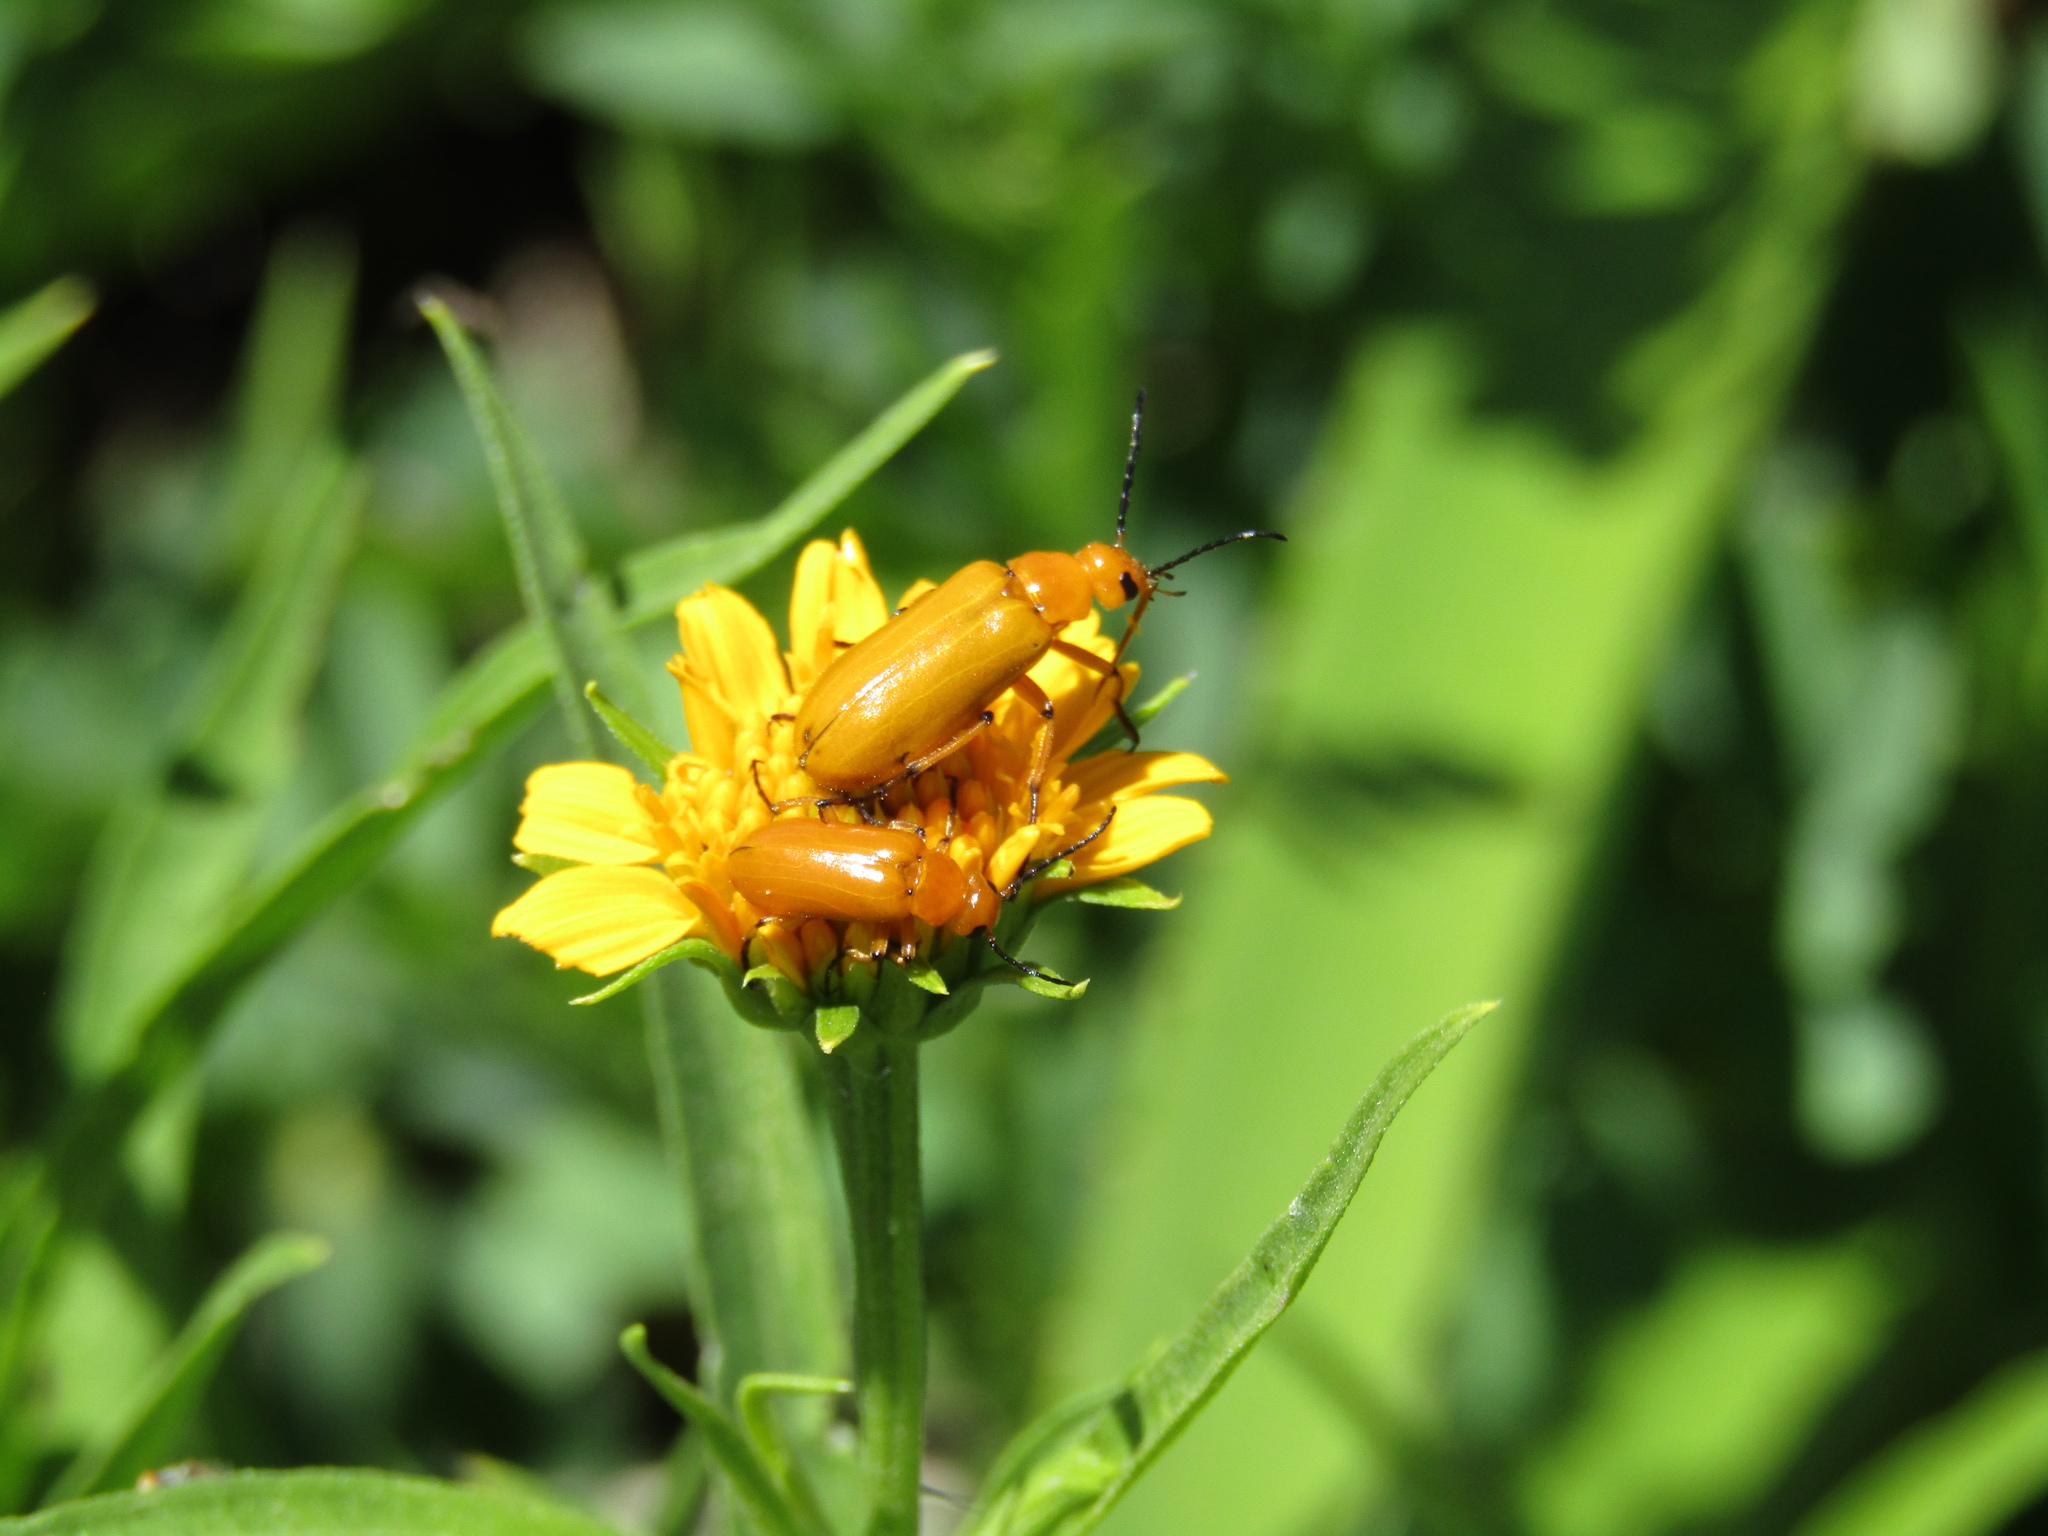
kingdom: Animalia
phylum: Arthropoda
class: Insecta
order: Coleoptera
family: Meloidae
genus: Nemognatha
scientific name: Nemognatha
